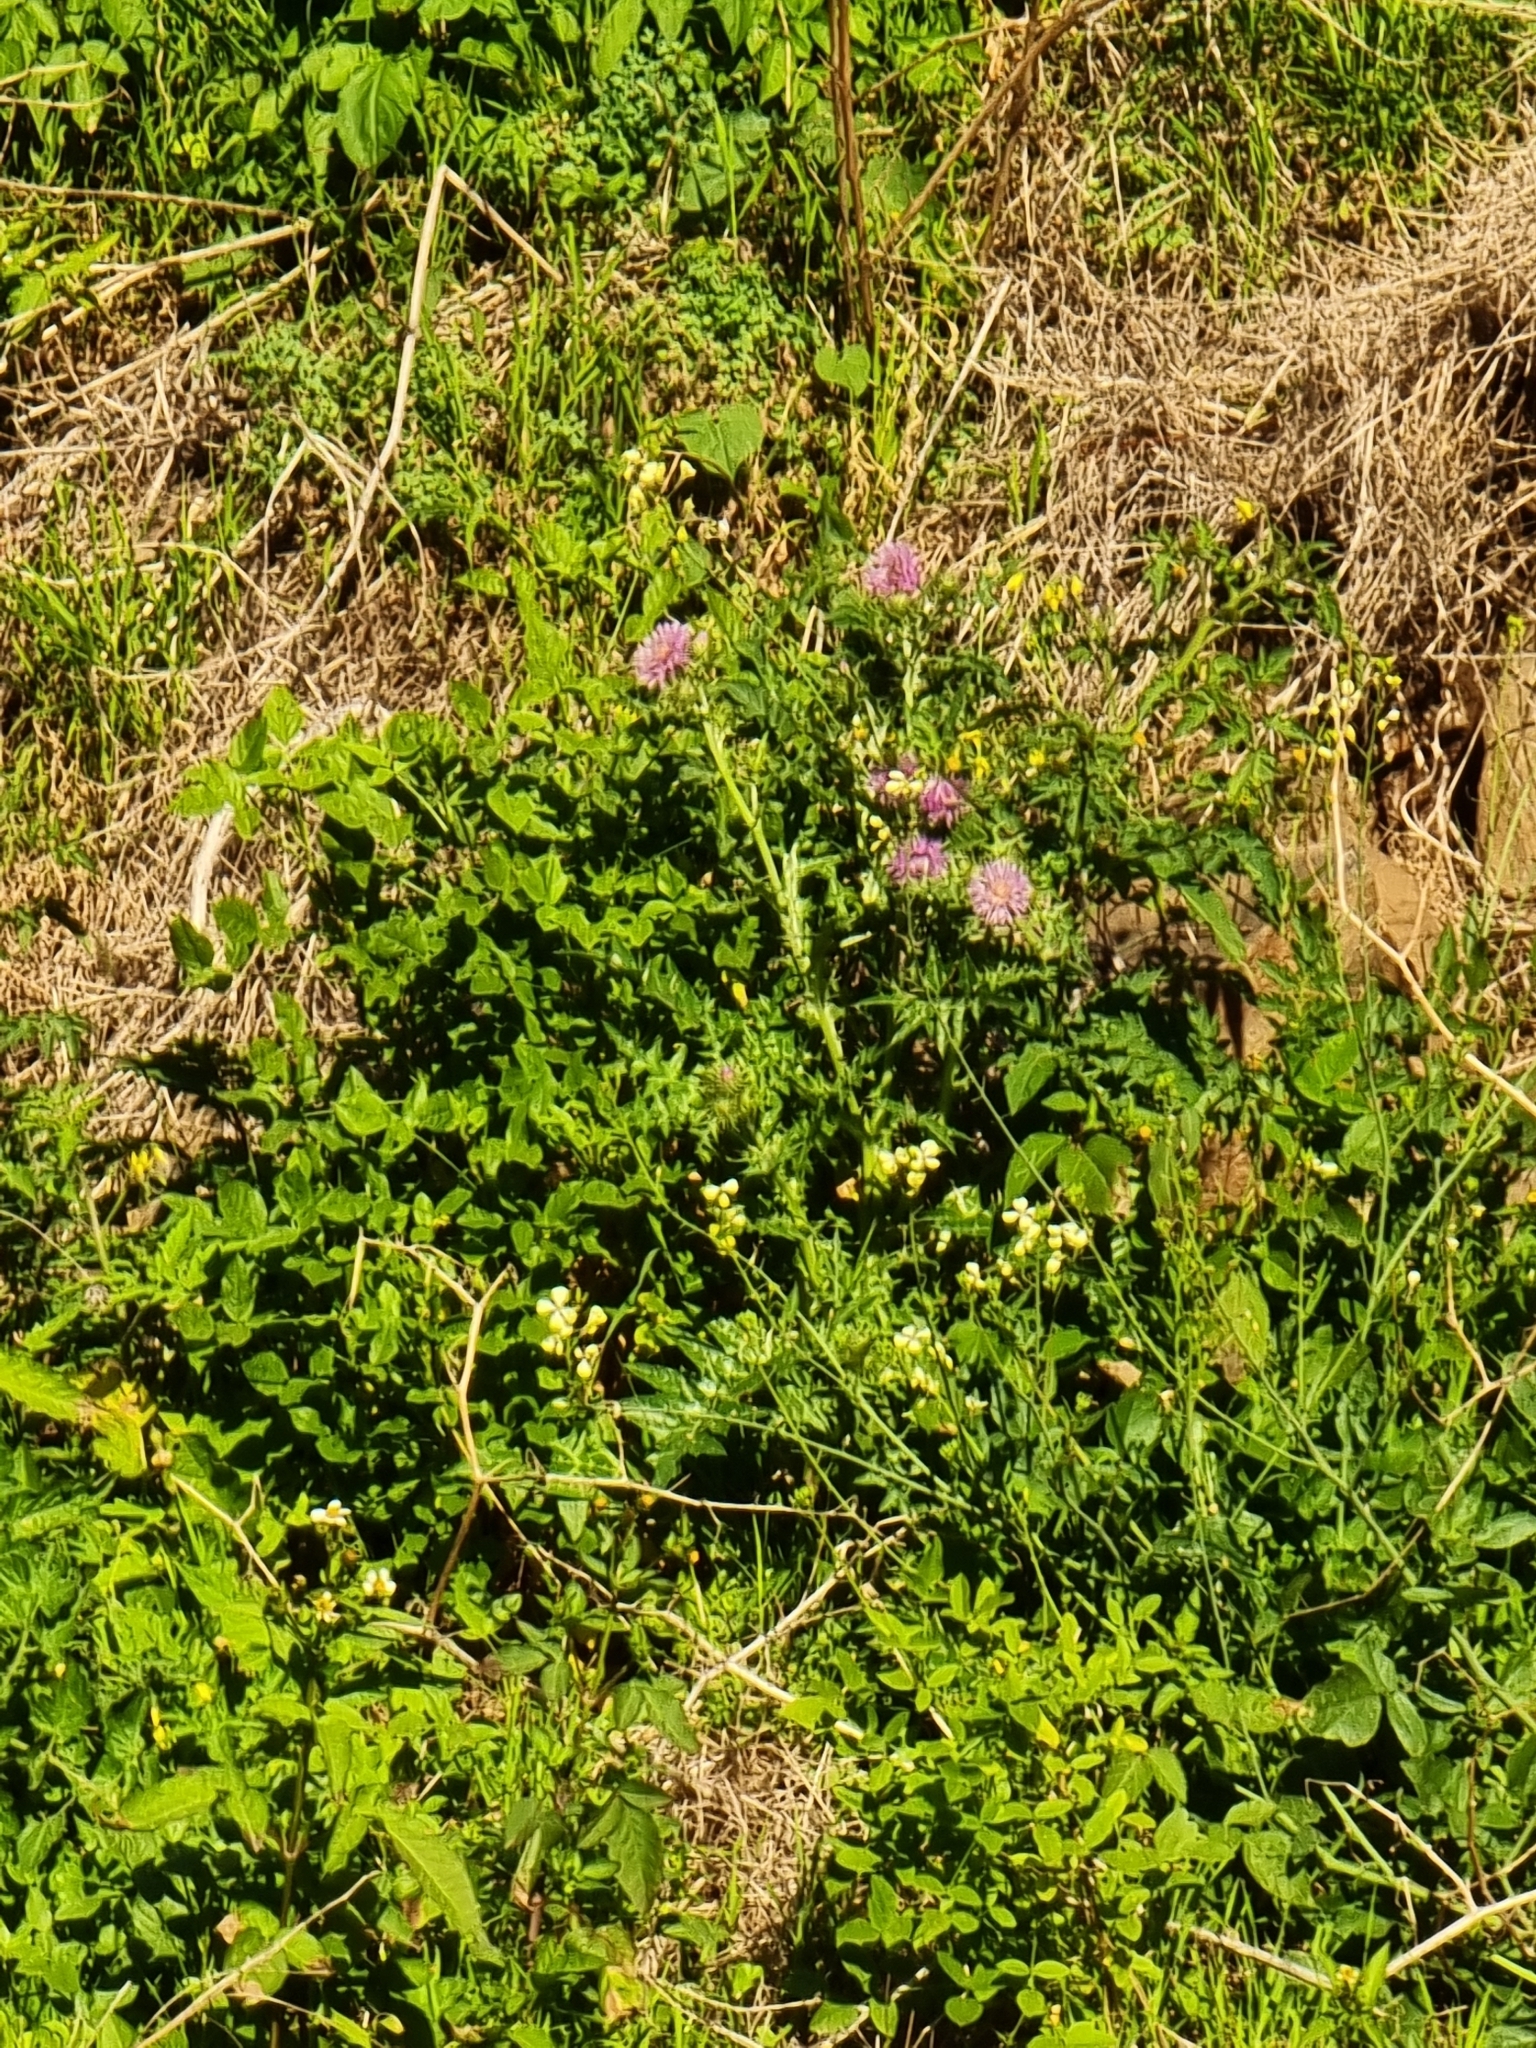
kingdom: Plantae
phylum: Tracheophyta
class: Magnoliopsida
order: Asterales
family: Asteraceae
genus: Galactites
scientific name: Galactites tomentosa
